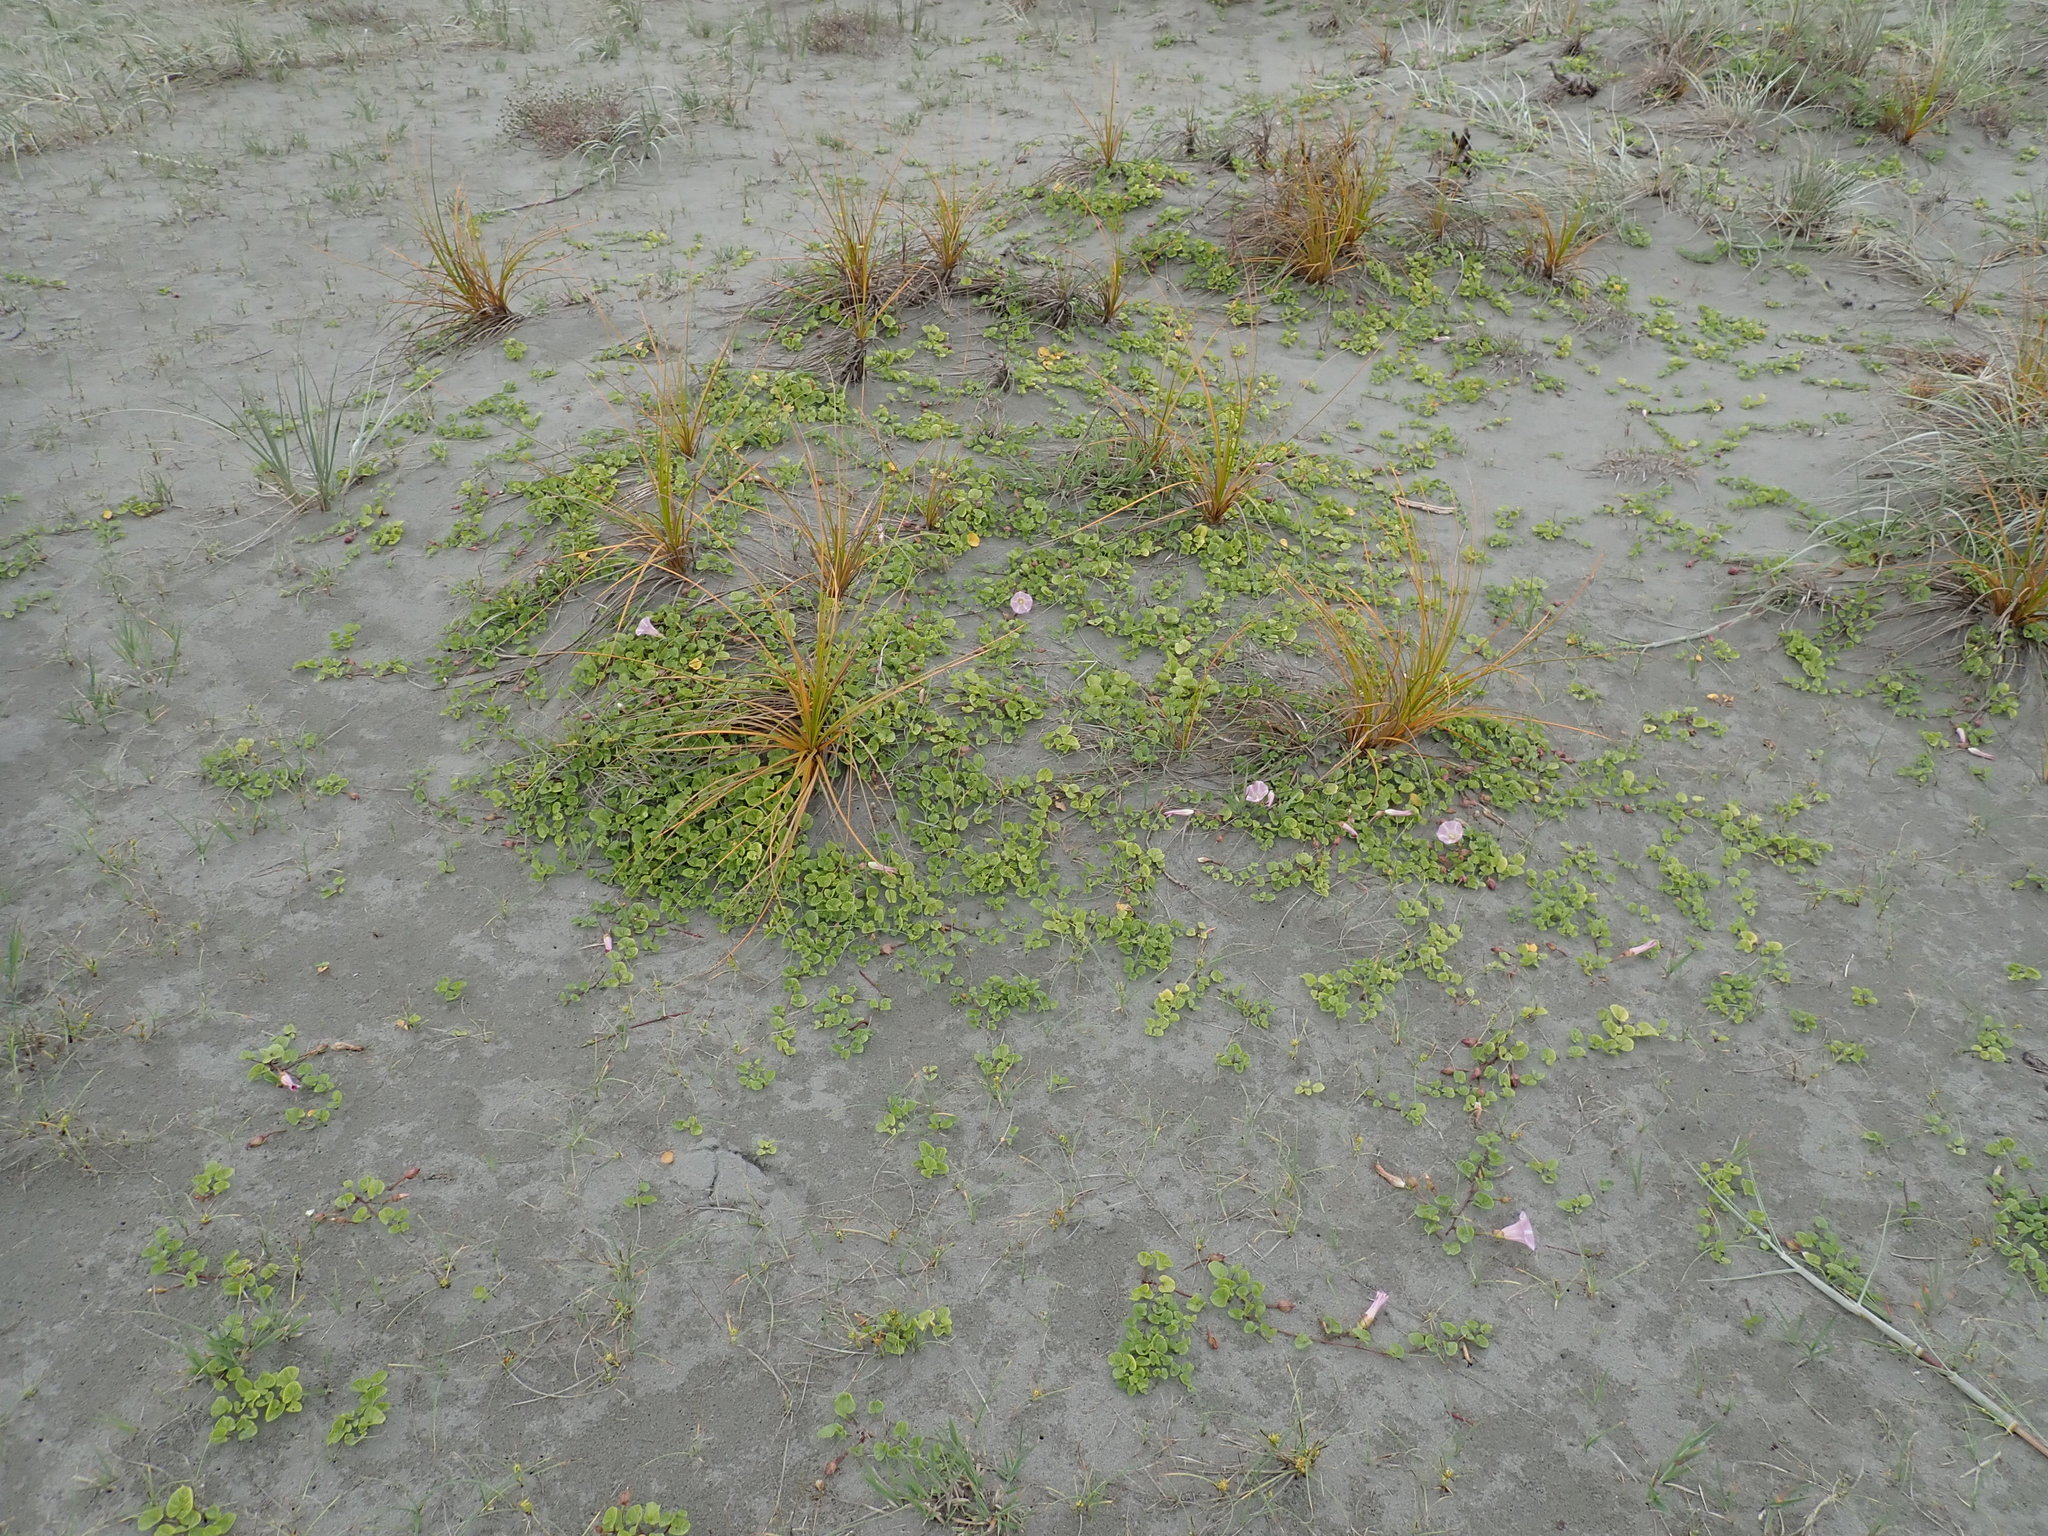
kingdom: Plantae
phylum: Tracheophyta
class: Magnoliopsida
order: Solanales
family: Convolvulaceae
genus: Calystegia
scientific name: Calystegia soldanella
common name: Sea bindweed
